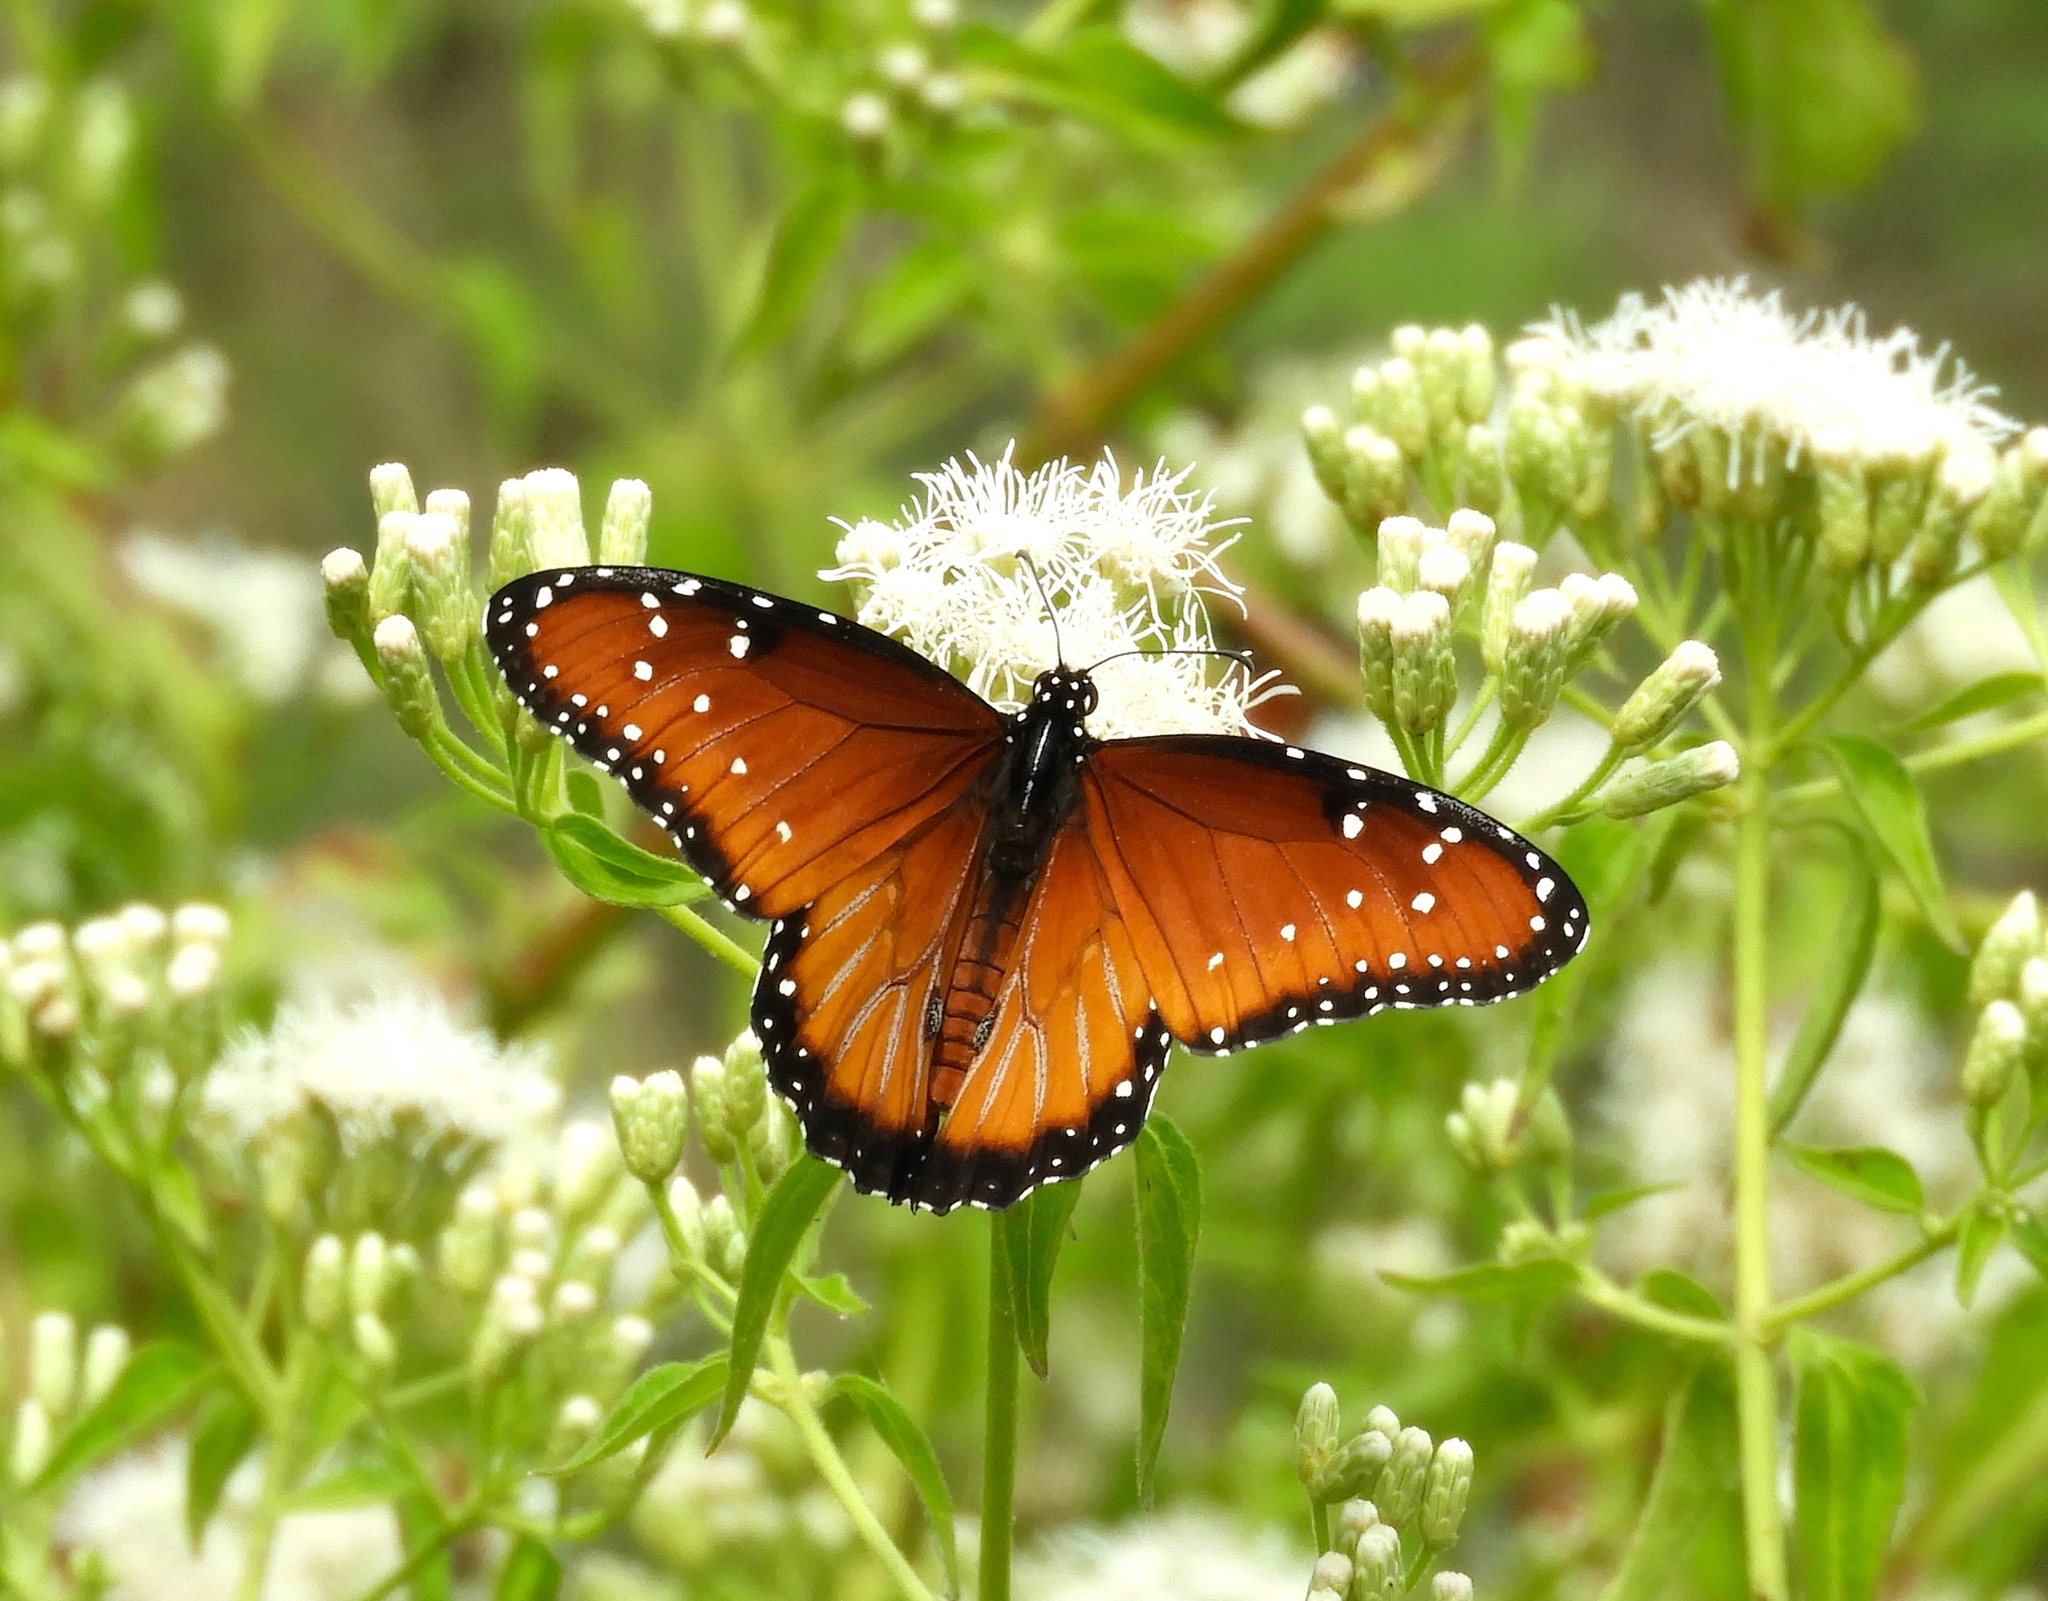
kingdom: Animalia
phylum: Arthropoda
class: Insecta
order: Lepidoptera
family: Nymphalidae
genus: Danaus
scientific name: Danaus gilippus
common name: Queen
